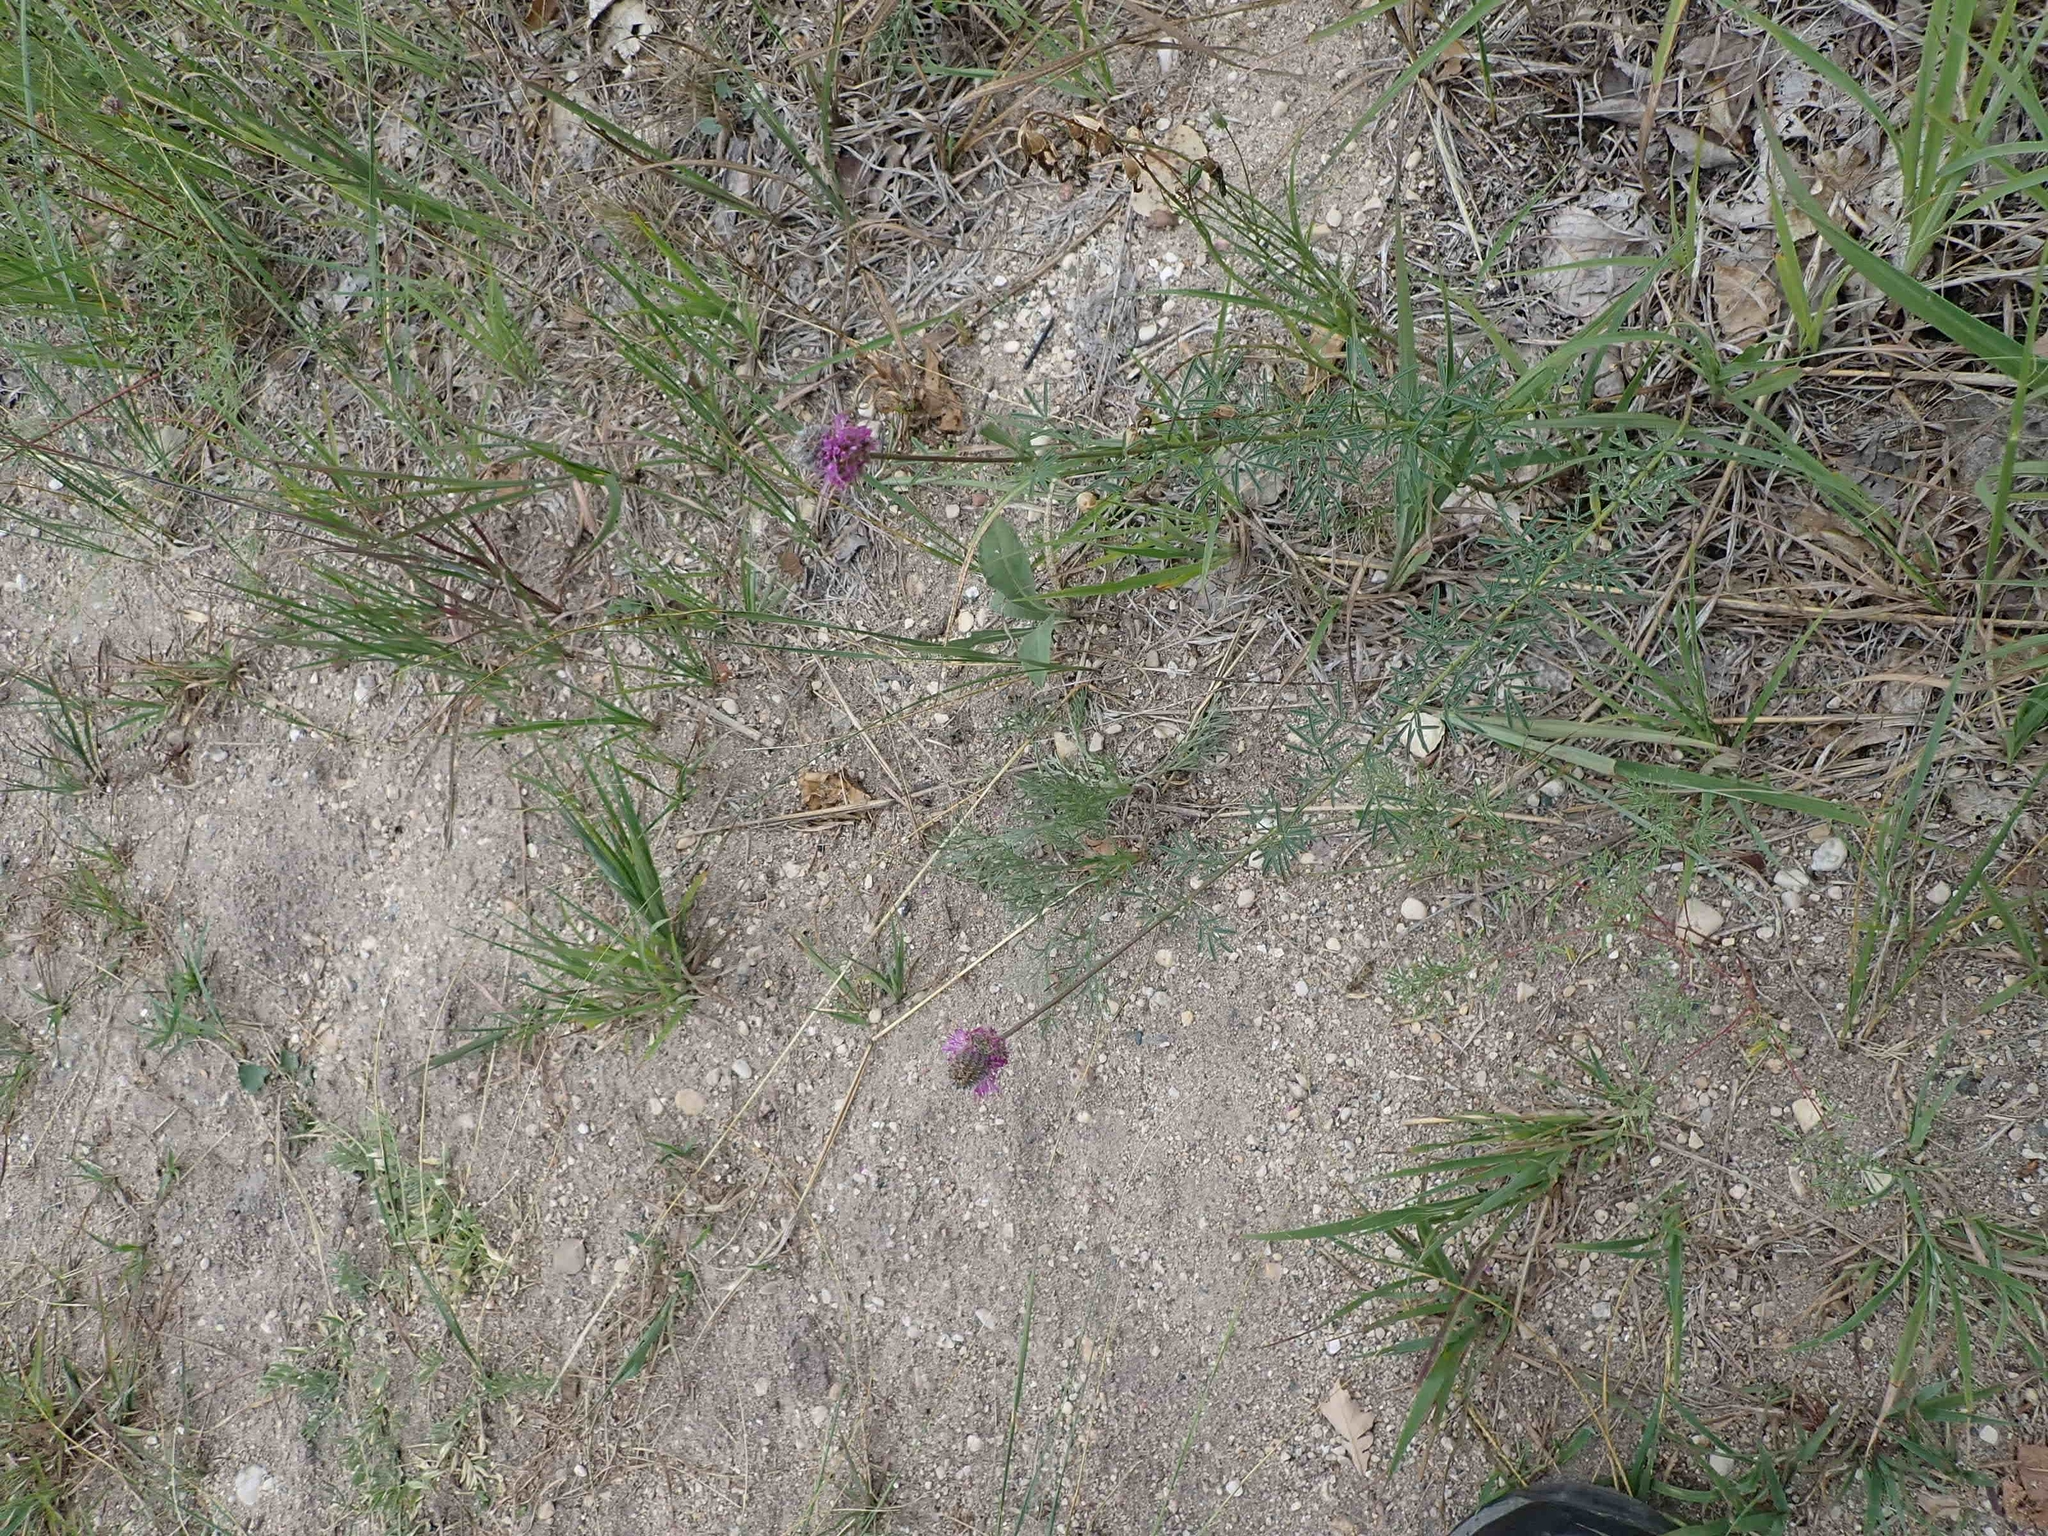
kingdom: Plantae
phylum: Tracheophyta
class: Magnoliopsida
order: Fabales
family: Fabaceae
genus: Dalea
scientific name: Dalea purpurea
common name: Purple prairie-clover
